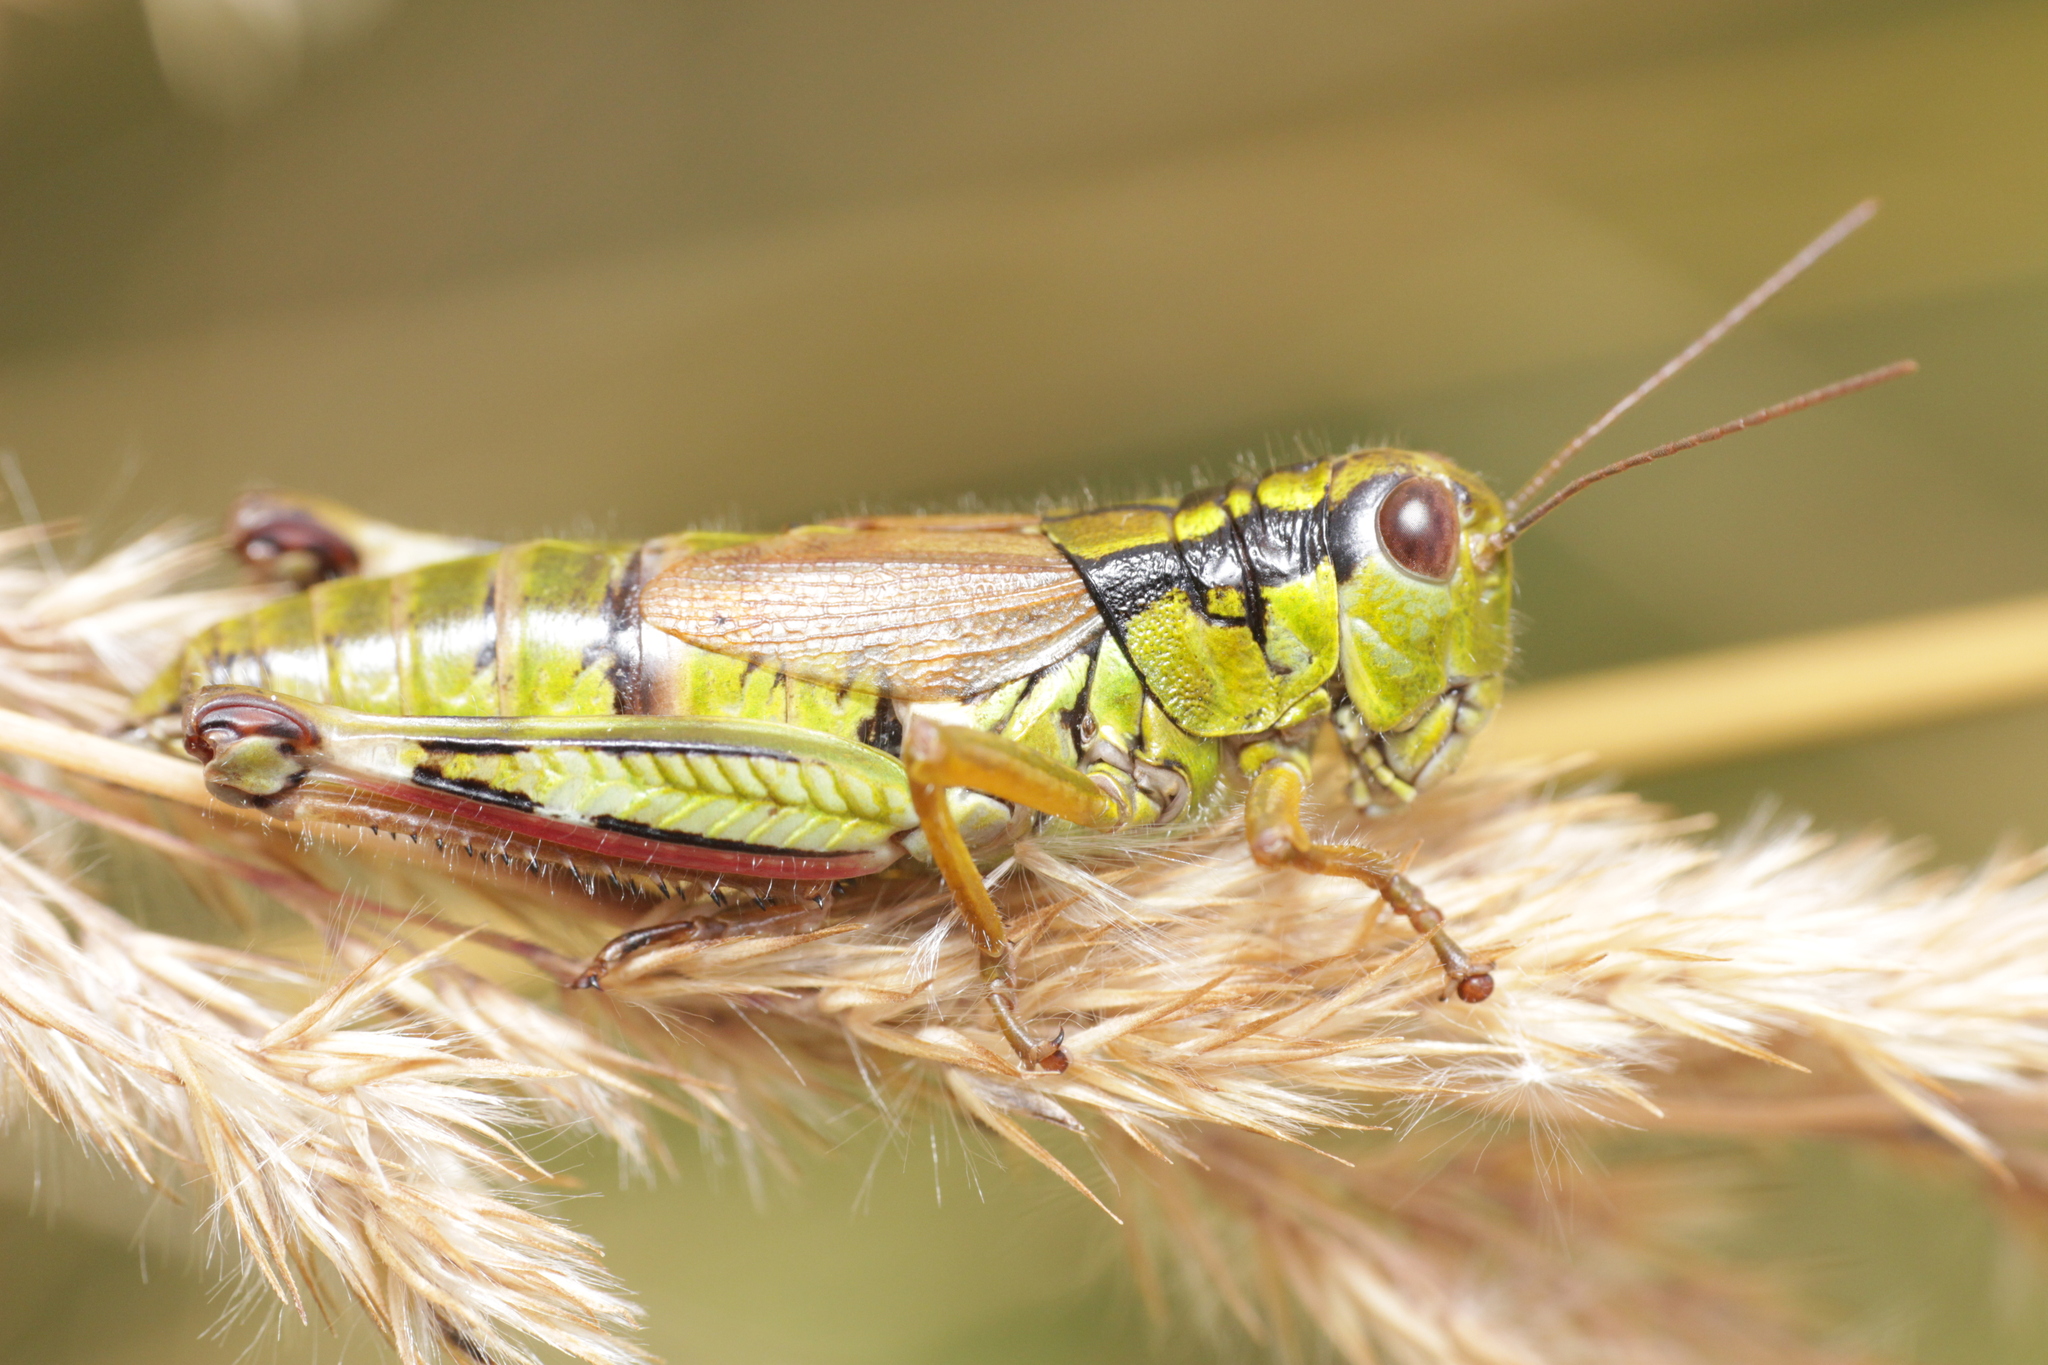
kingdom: Animalia
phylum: Arthropoda
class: Insecta
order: Orthoptera
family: Acrididae
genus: Miramella
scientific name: Miramella alpina
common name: Green mountain grasshopper
